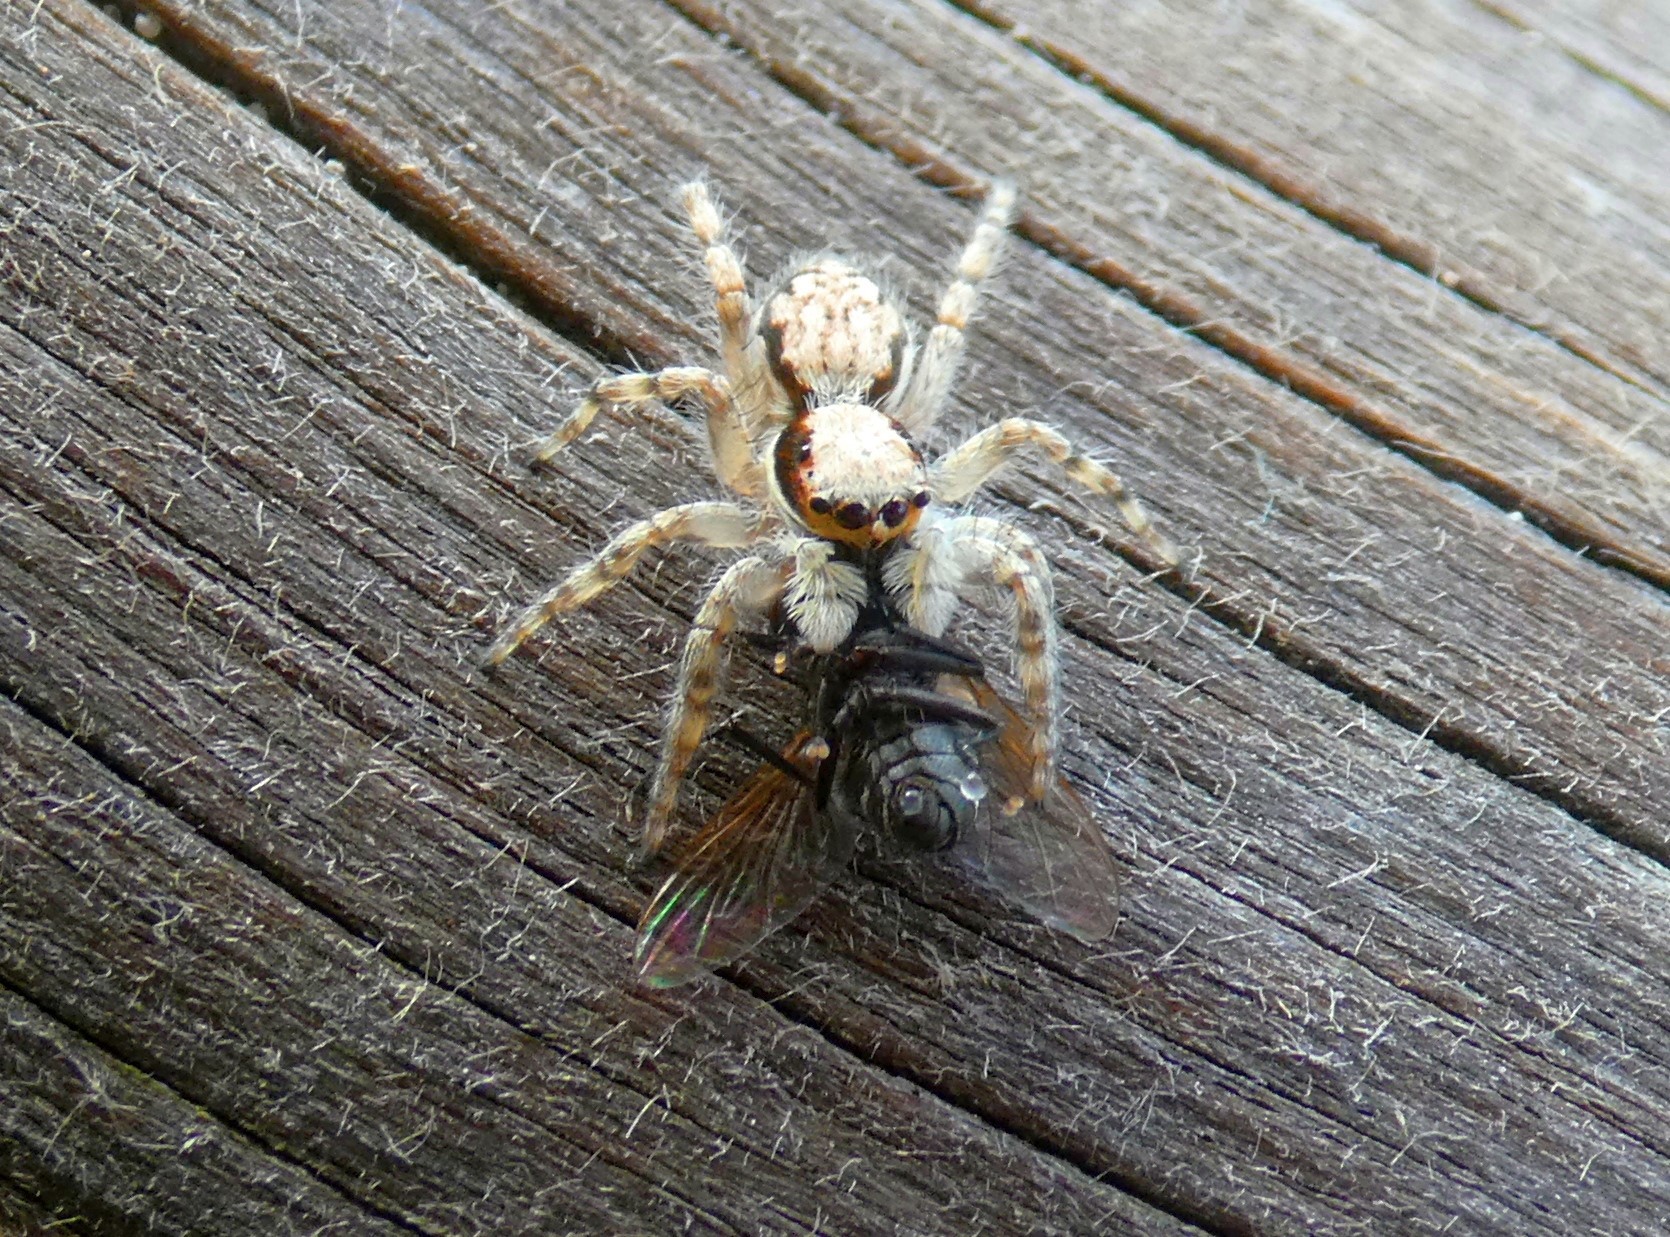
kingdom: Animalia
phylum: Arthropoda
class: Arachnida
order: Araneae
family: Salticidae
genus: Menemerus
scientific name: Menemerus bivittatus
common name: Gray wall jumper
